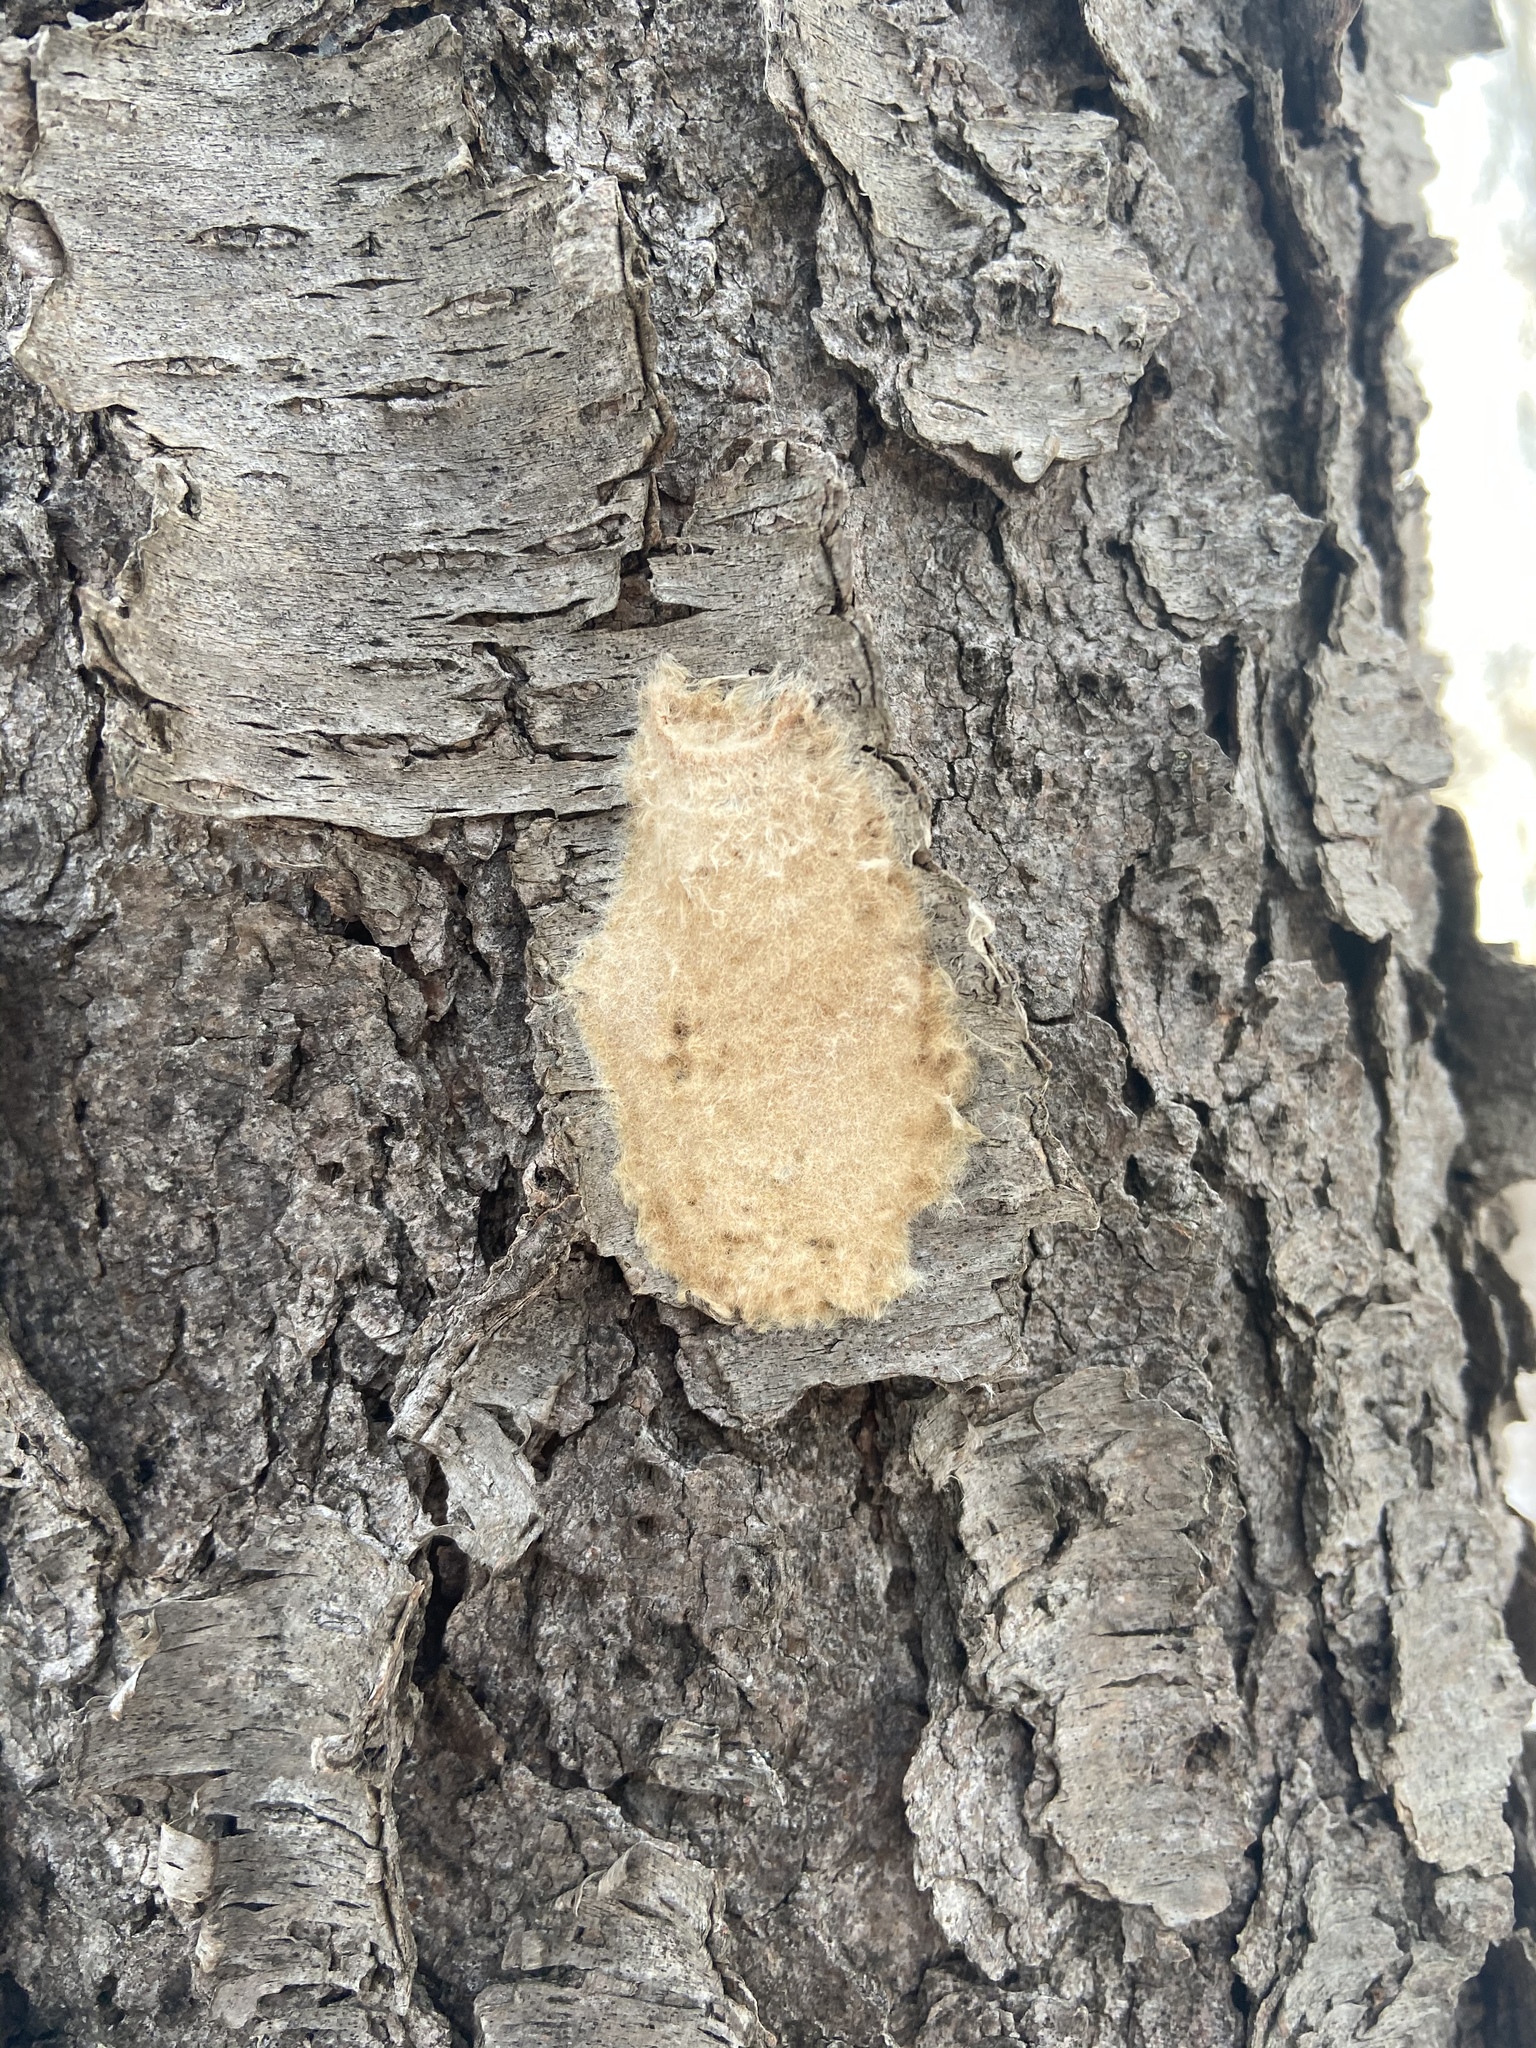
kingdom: Animalia
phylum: Arthropoda
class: Insecta
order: Lepidoptera
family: Erebidae
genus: Lymantria
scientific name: Lymantria dispar
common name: Gypsy moth
